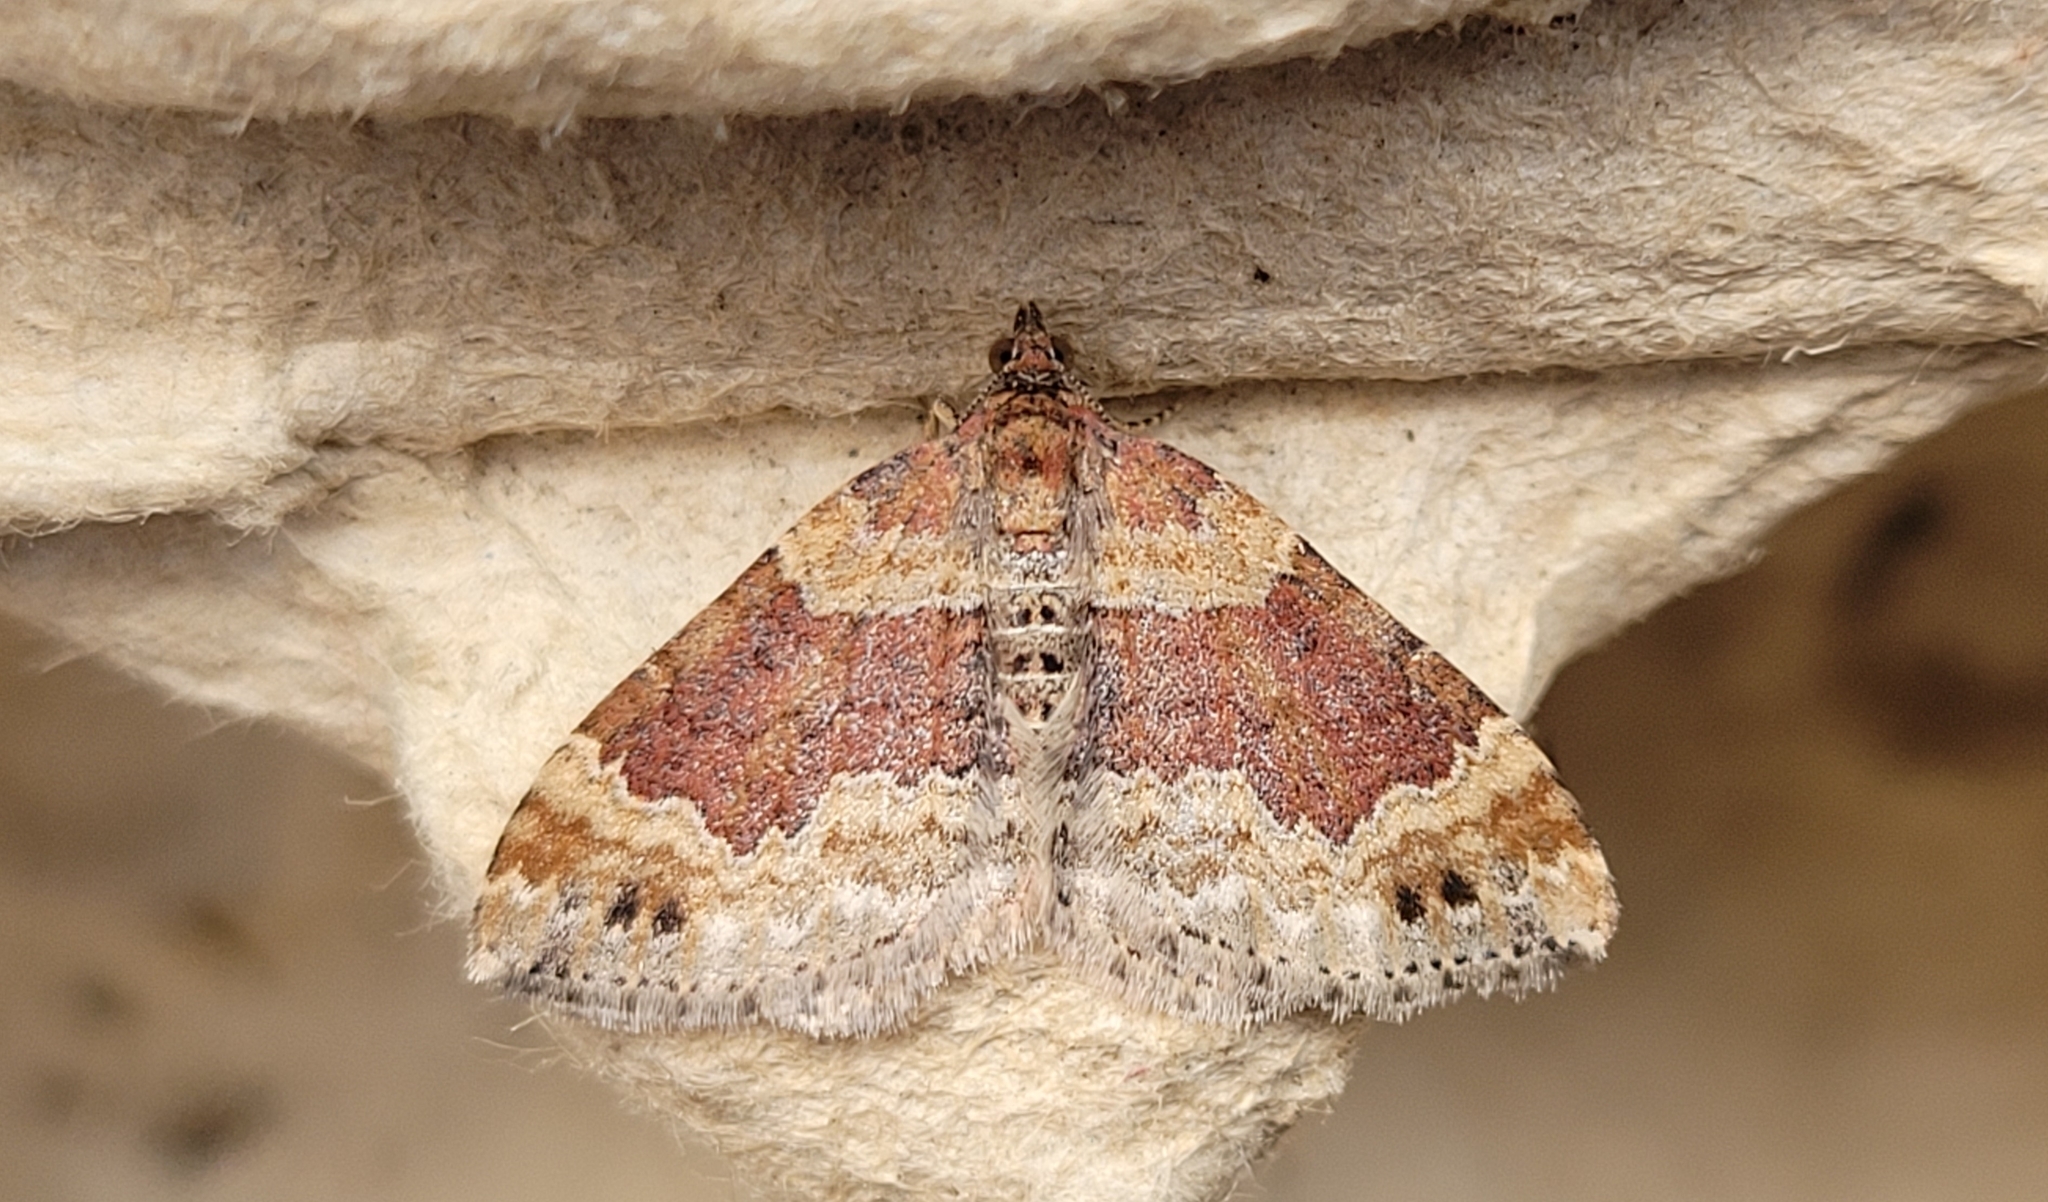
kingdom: Animalia
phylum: Arthropoda
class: Insecta
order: Lepidoptera
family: Geometridae
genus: Xanthorhoe
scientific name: Xanthorhoe spadicearia
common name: Red twin-spot carpet
